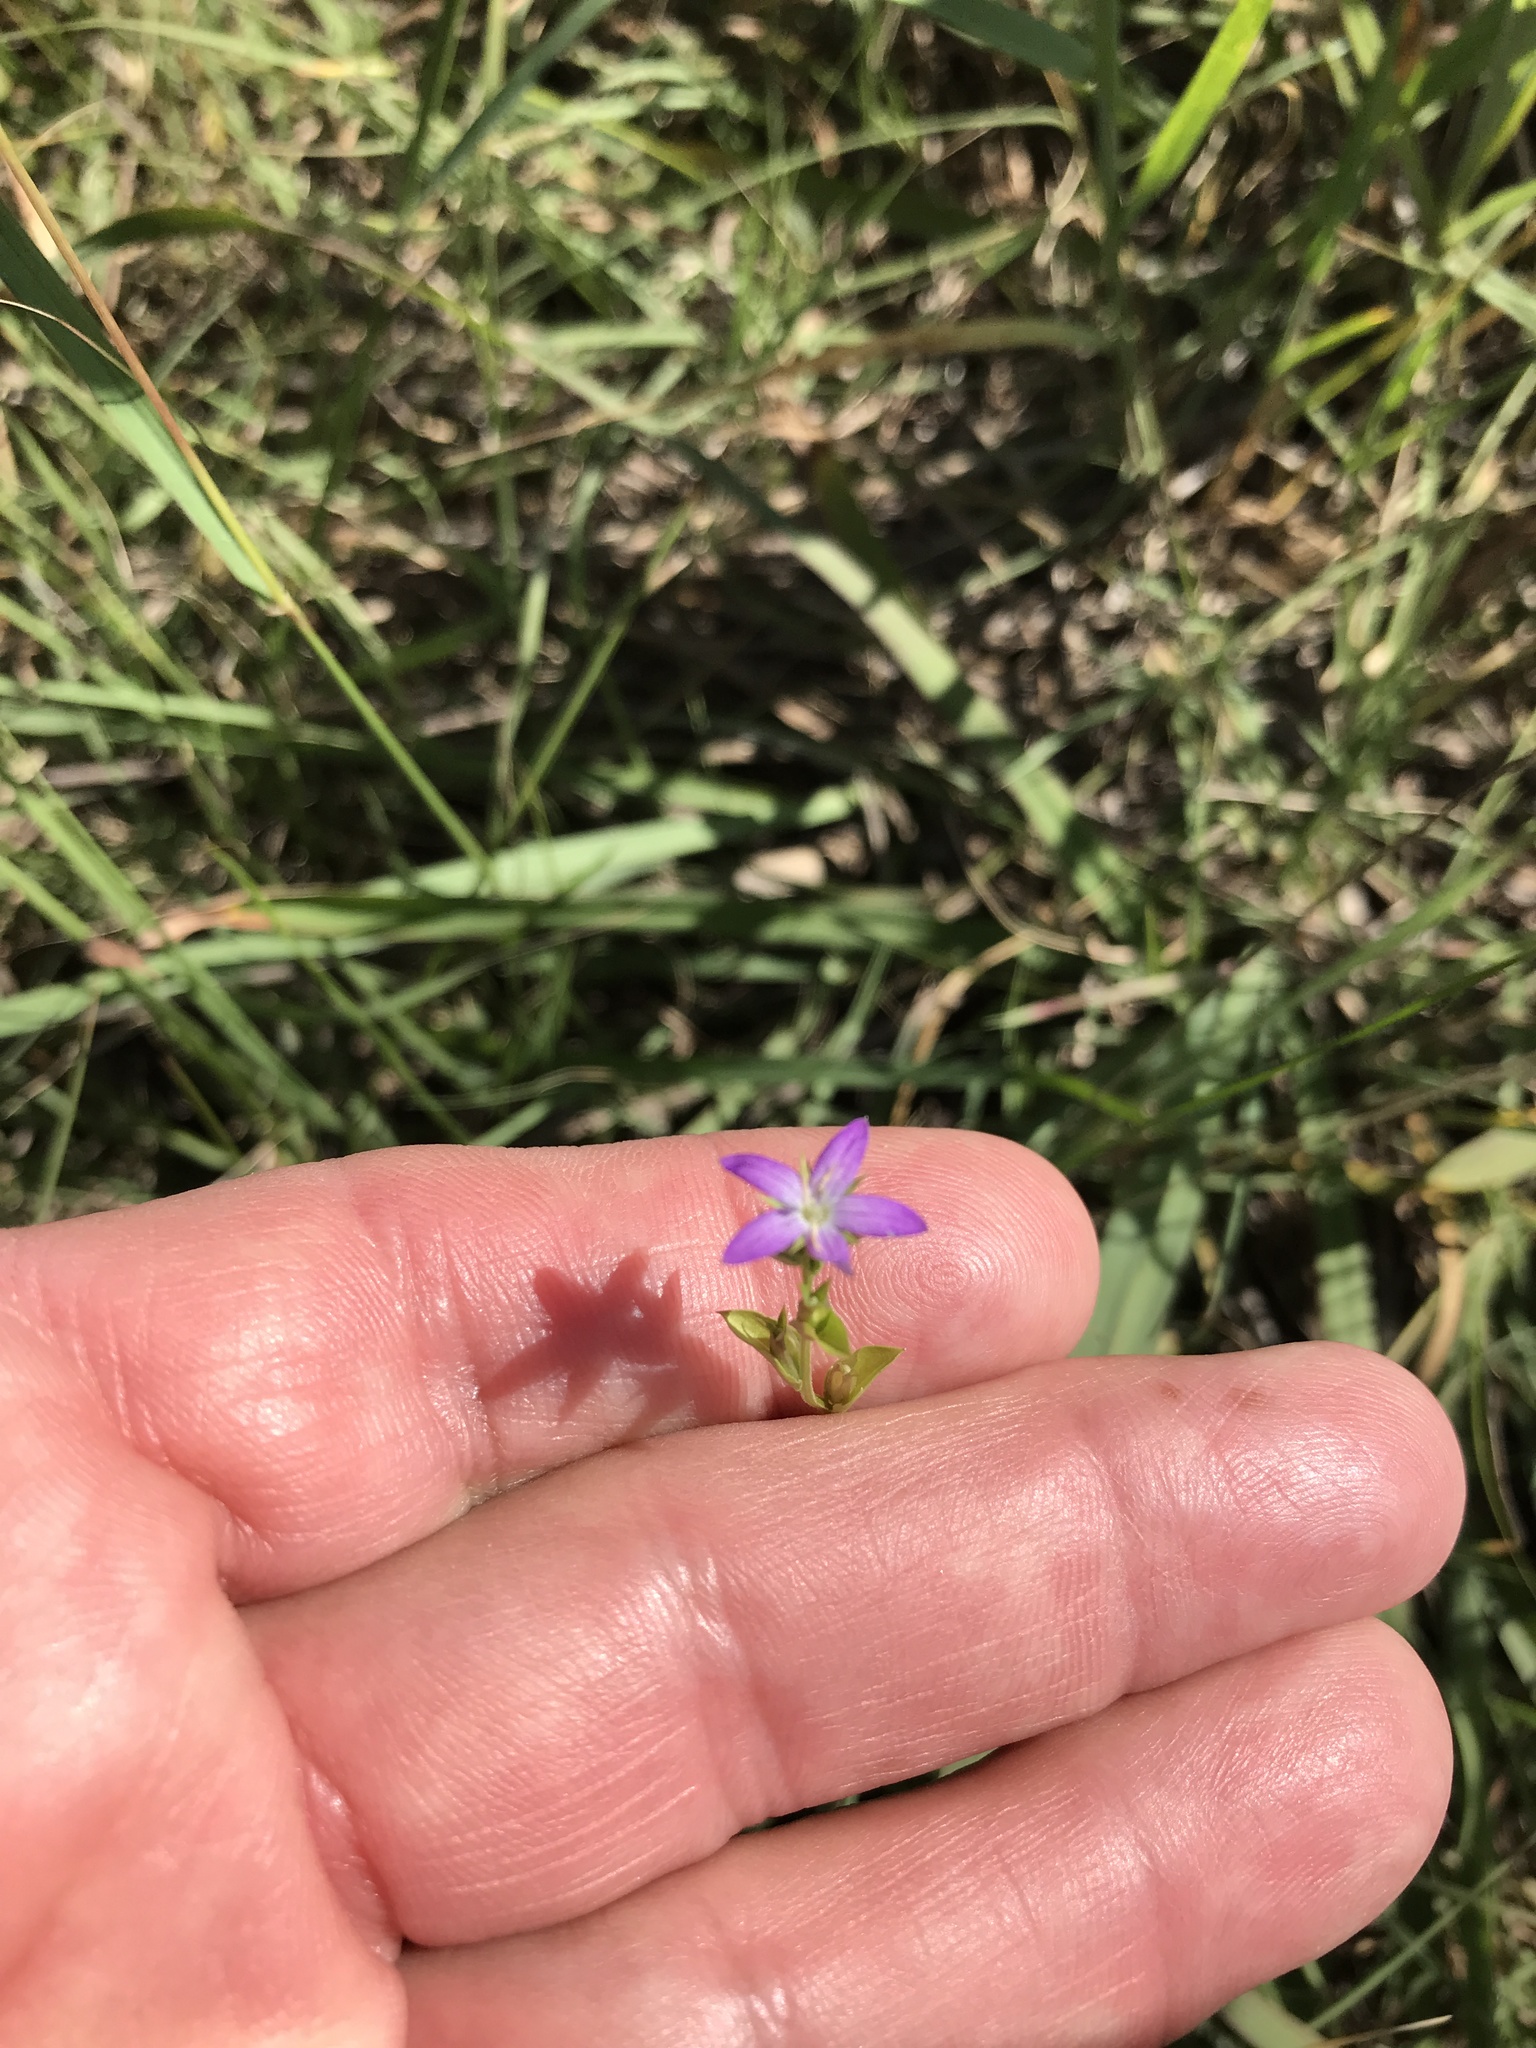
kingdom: Plantae
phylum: Tracheophyta
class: Magnoliopsida
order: Asterales
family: Campanulaceae
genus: Triodanis
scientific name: Triodanis biflora
